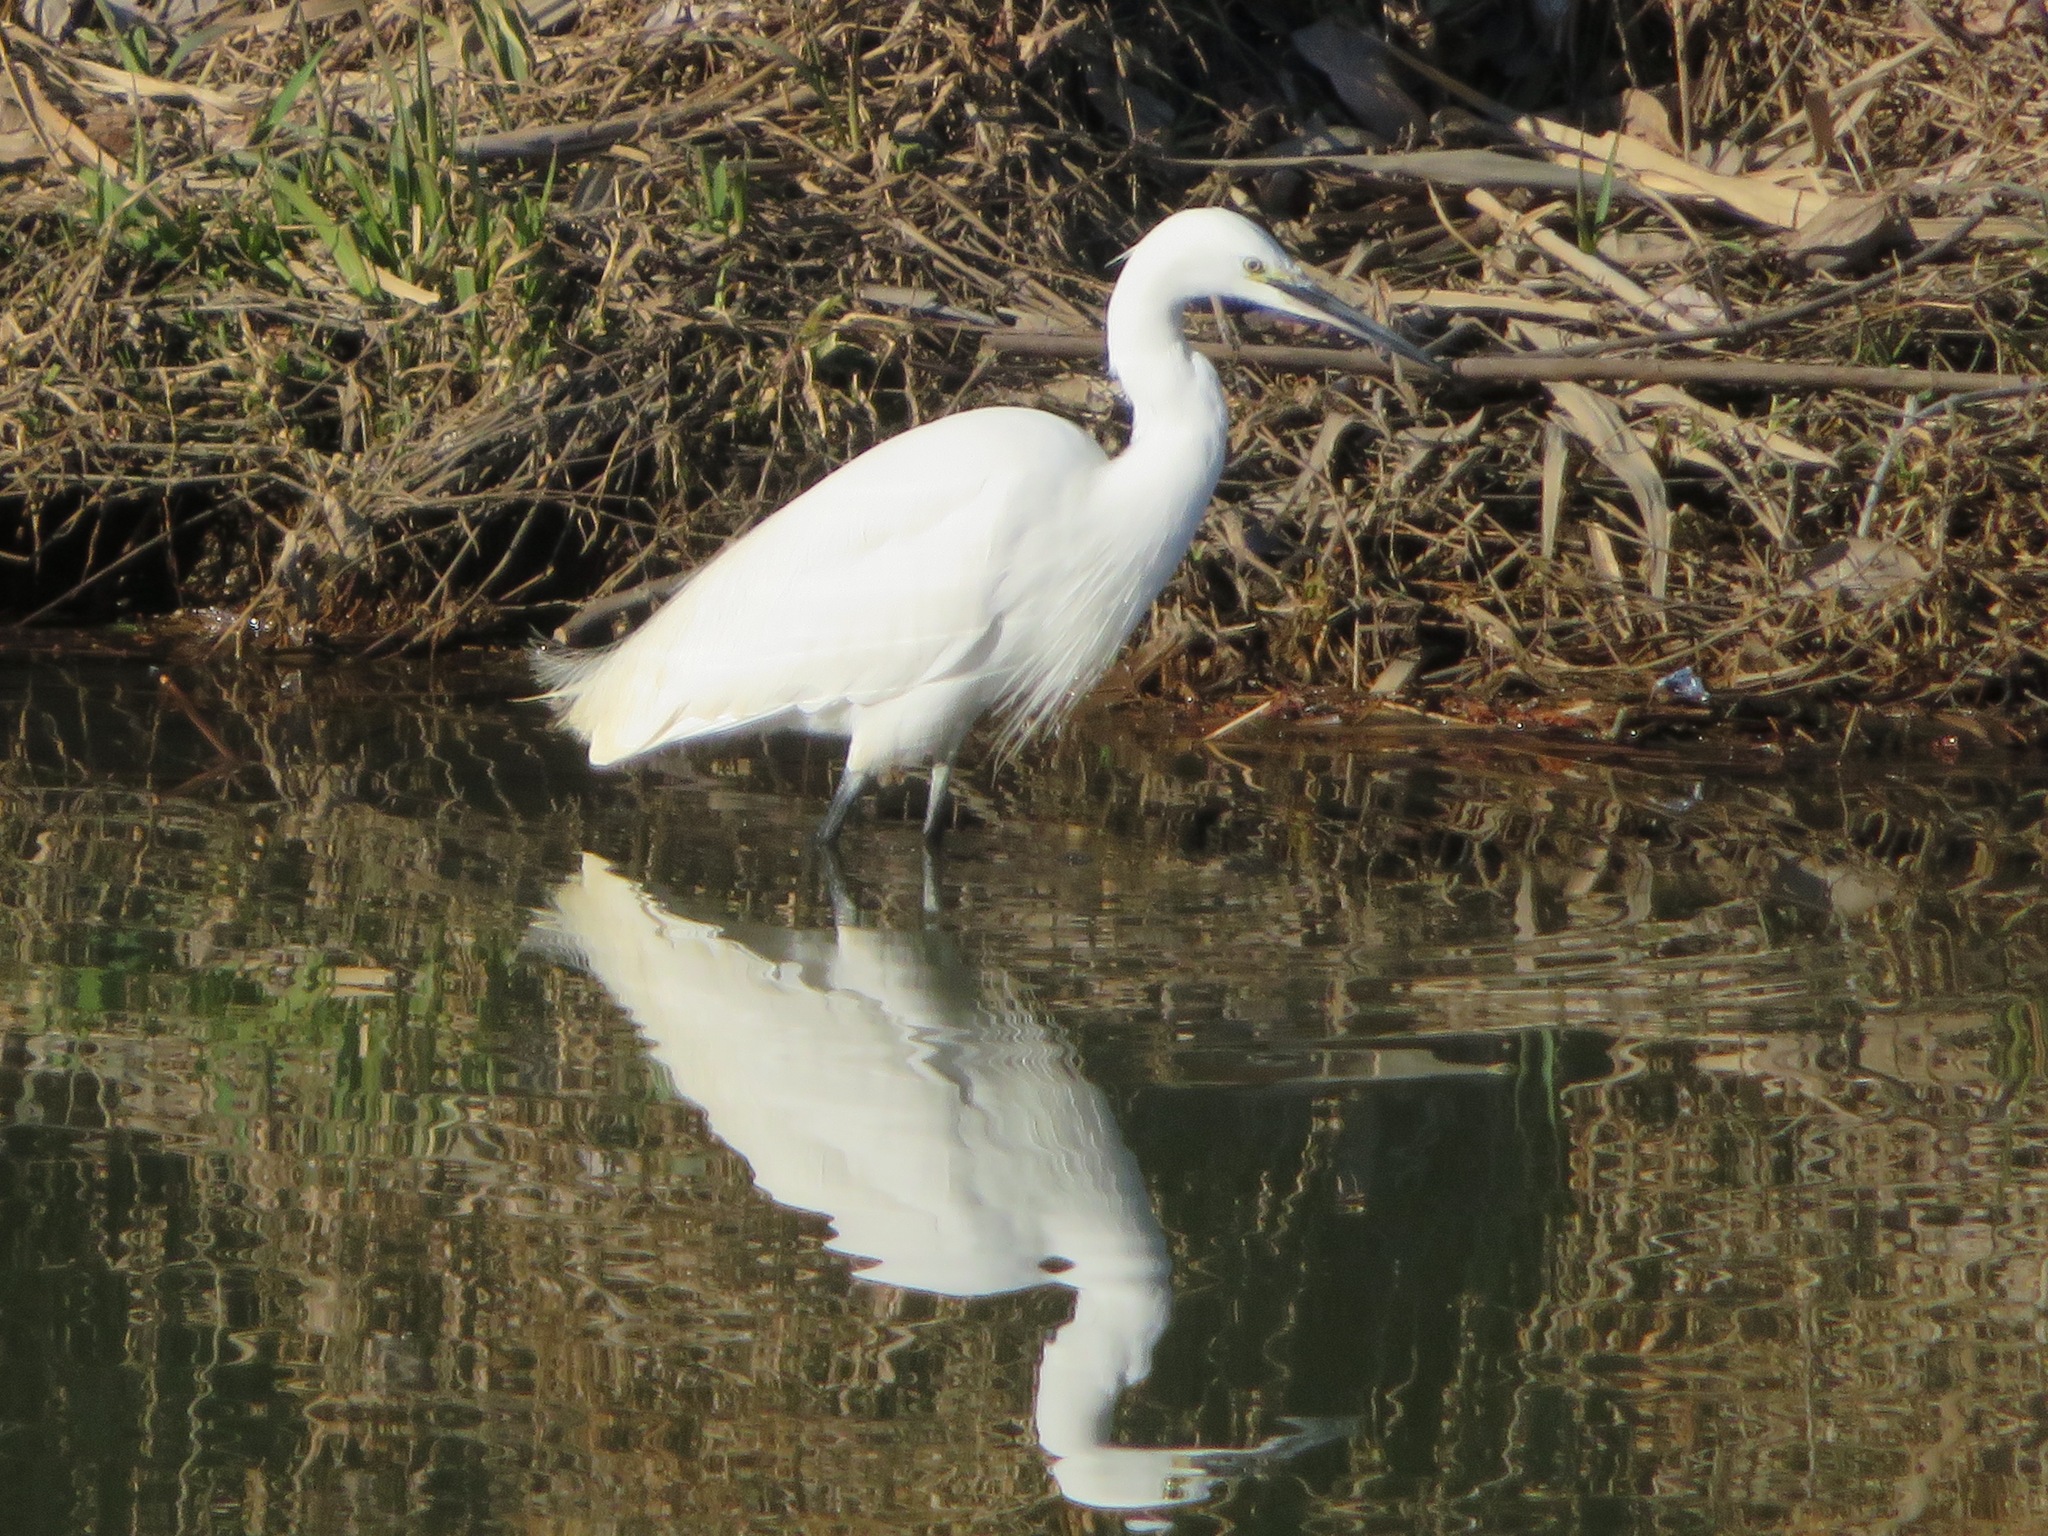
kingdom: Animalia
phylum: Chordata
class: Aves
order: Pelecaniformes
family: Ardeidae
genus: Egretta
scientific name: Egretta garzetta
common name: Little egret
